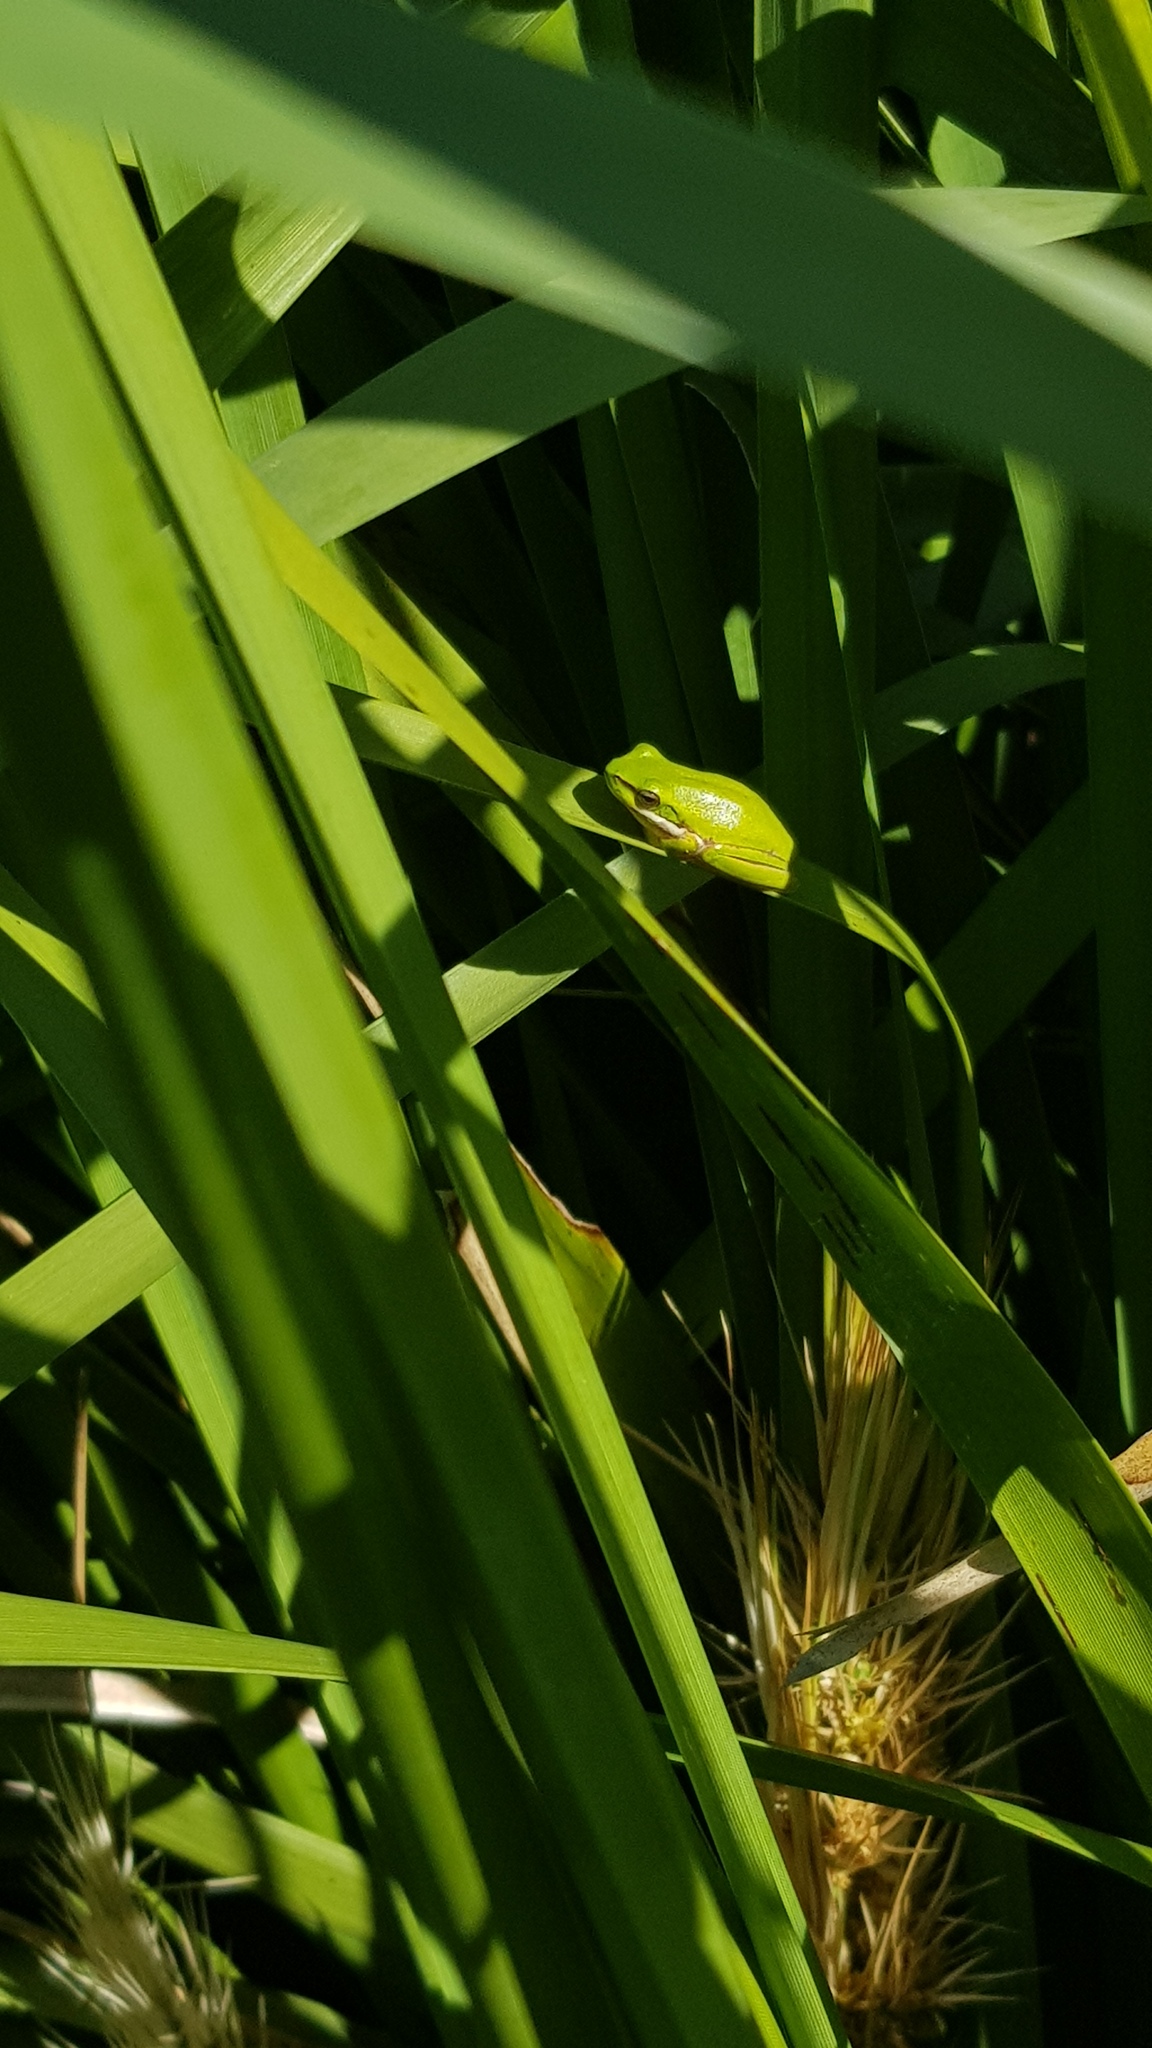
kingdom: Animalia
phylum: Chordata
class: Amphibia
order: Anura
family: Pelodryadidae
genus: Litoria
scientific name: Litoria fallax
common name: Eastern dwarf treefrog
